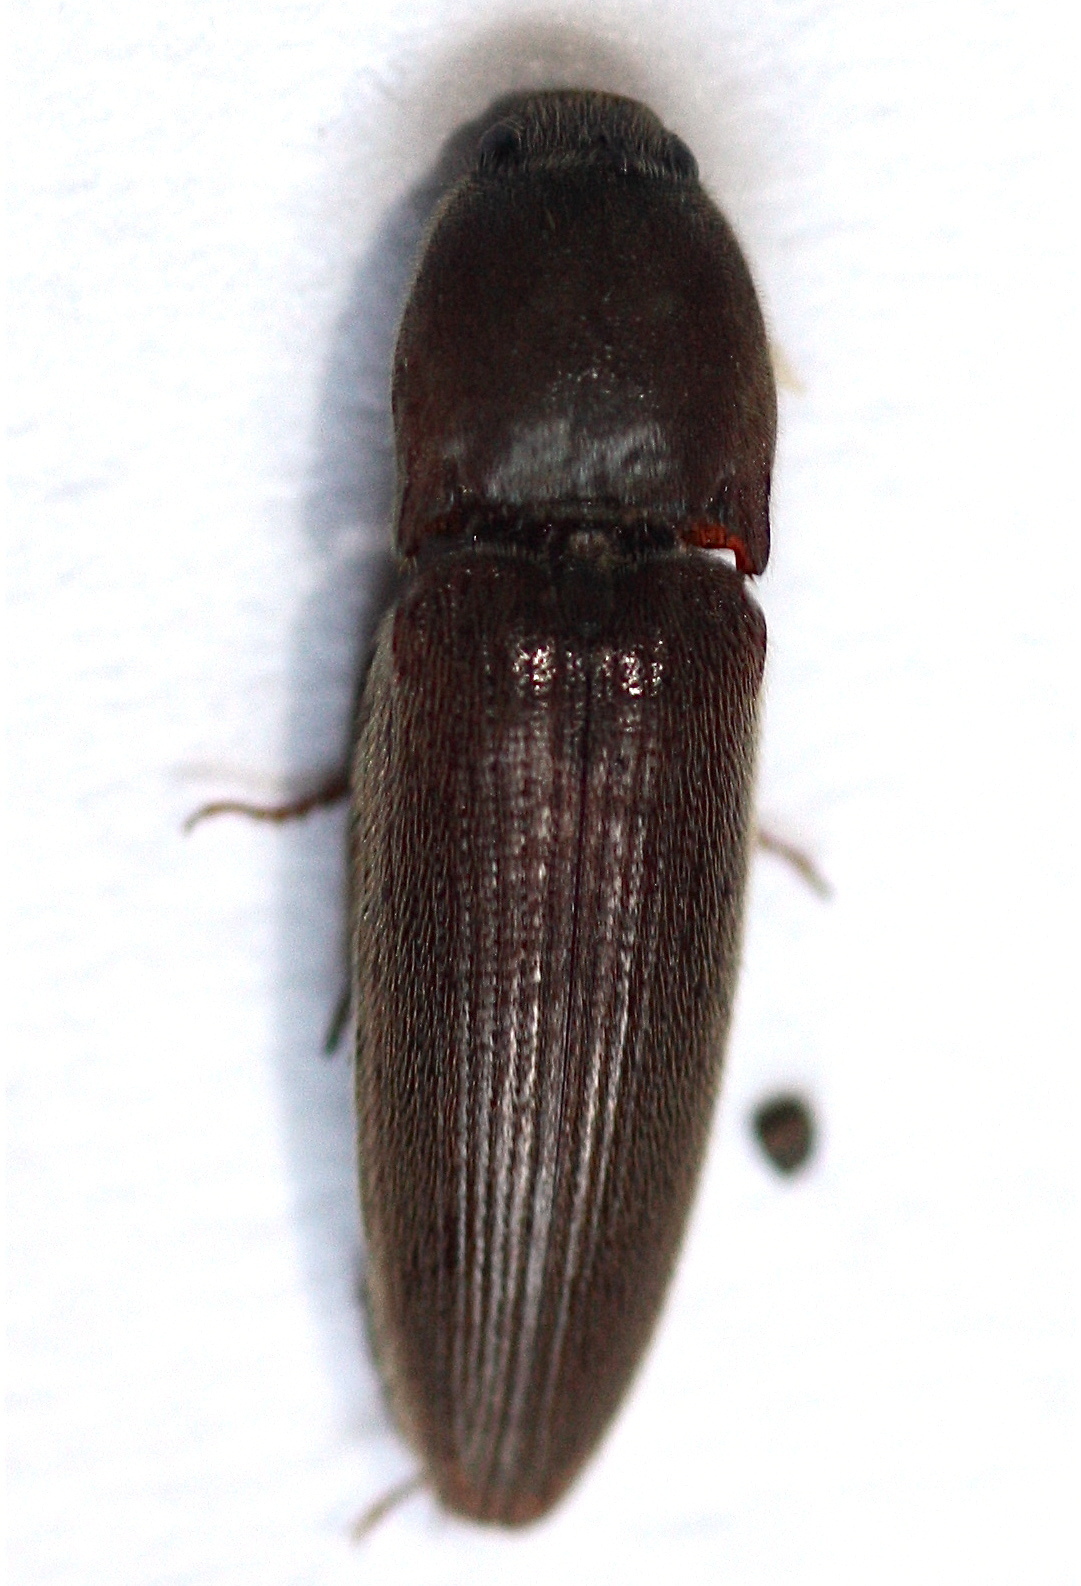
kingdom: Animalia
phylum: Arthropoda
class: Insecta
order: Coleoptera
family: Elateridae
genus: Melanotus
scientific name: Melanotus opacicollis
